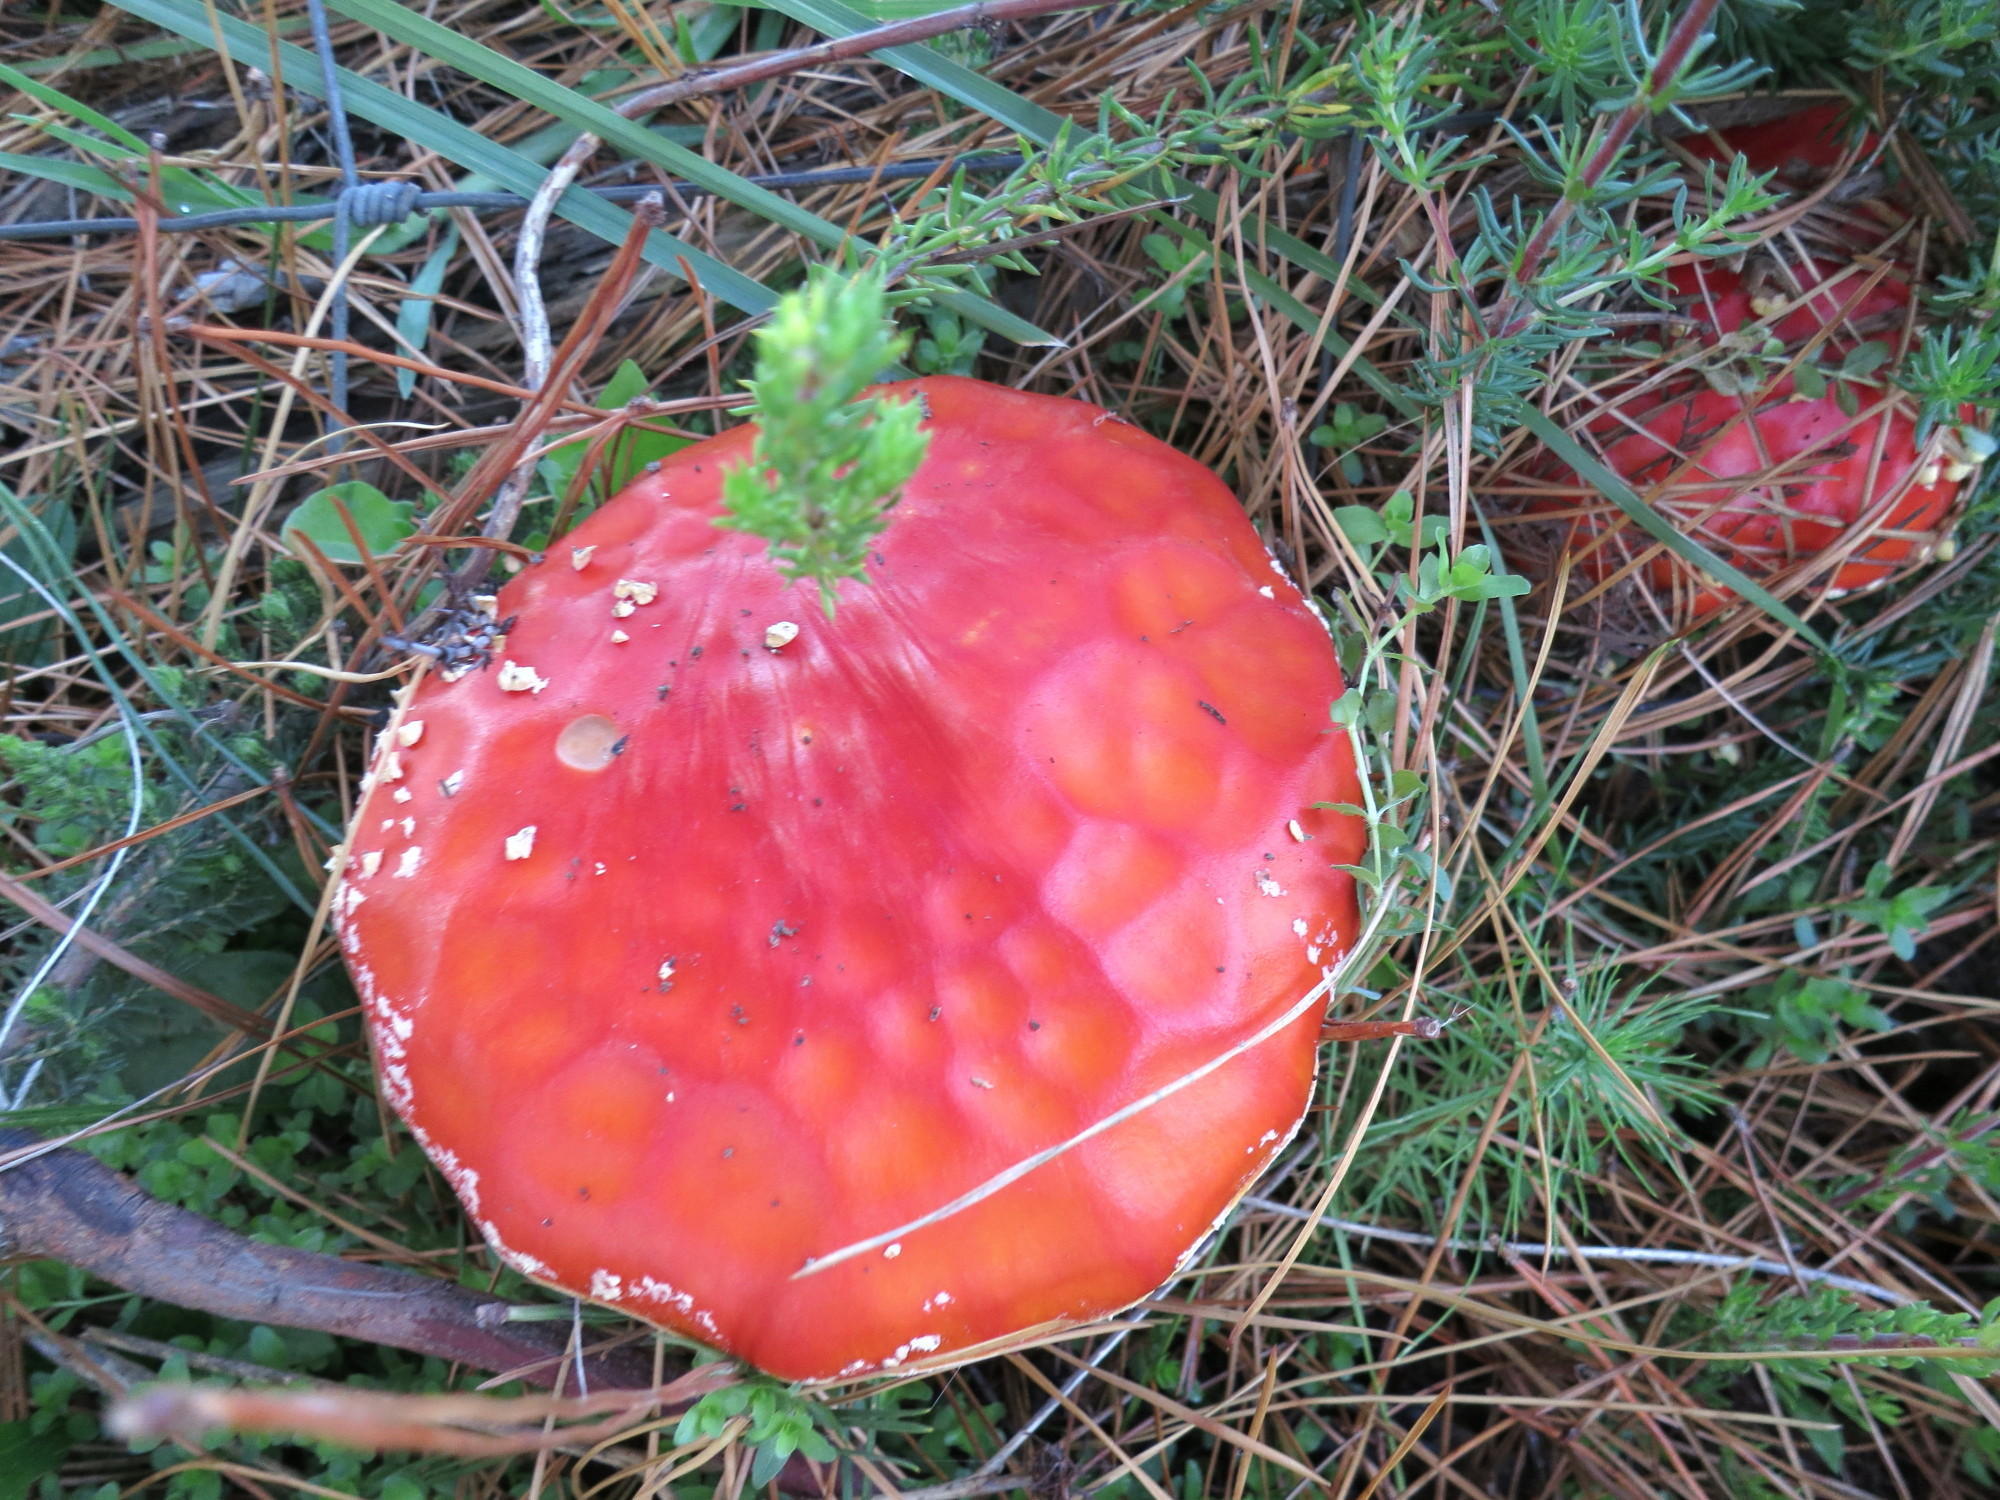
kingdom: Fungi
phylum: Basidiomycota
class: Agaricomycetes
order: Agaricales
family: Amanitaceae
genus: Amanita
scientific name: Amanita muscaria
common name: Fly agaric
